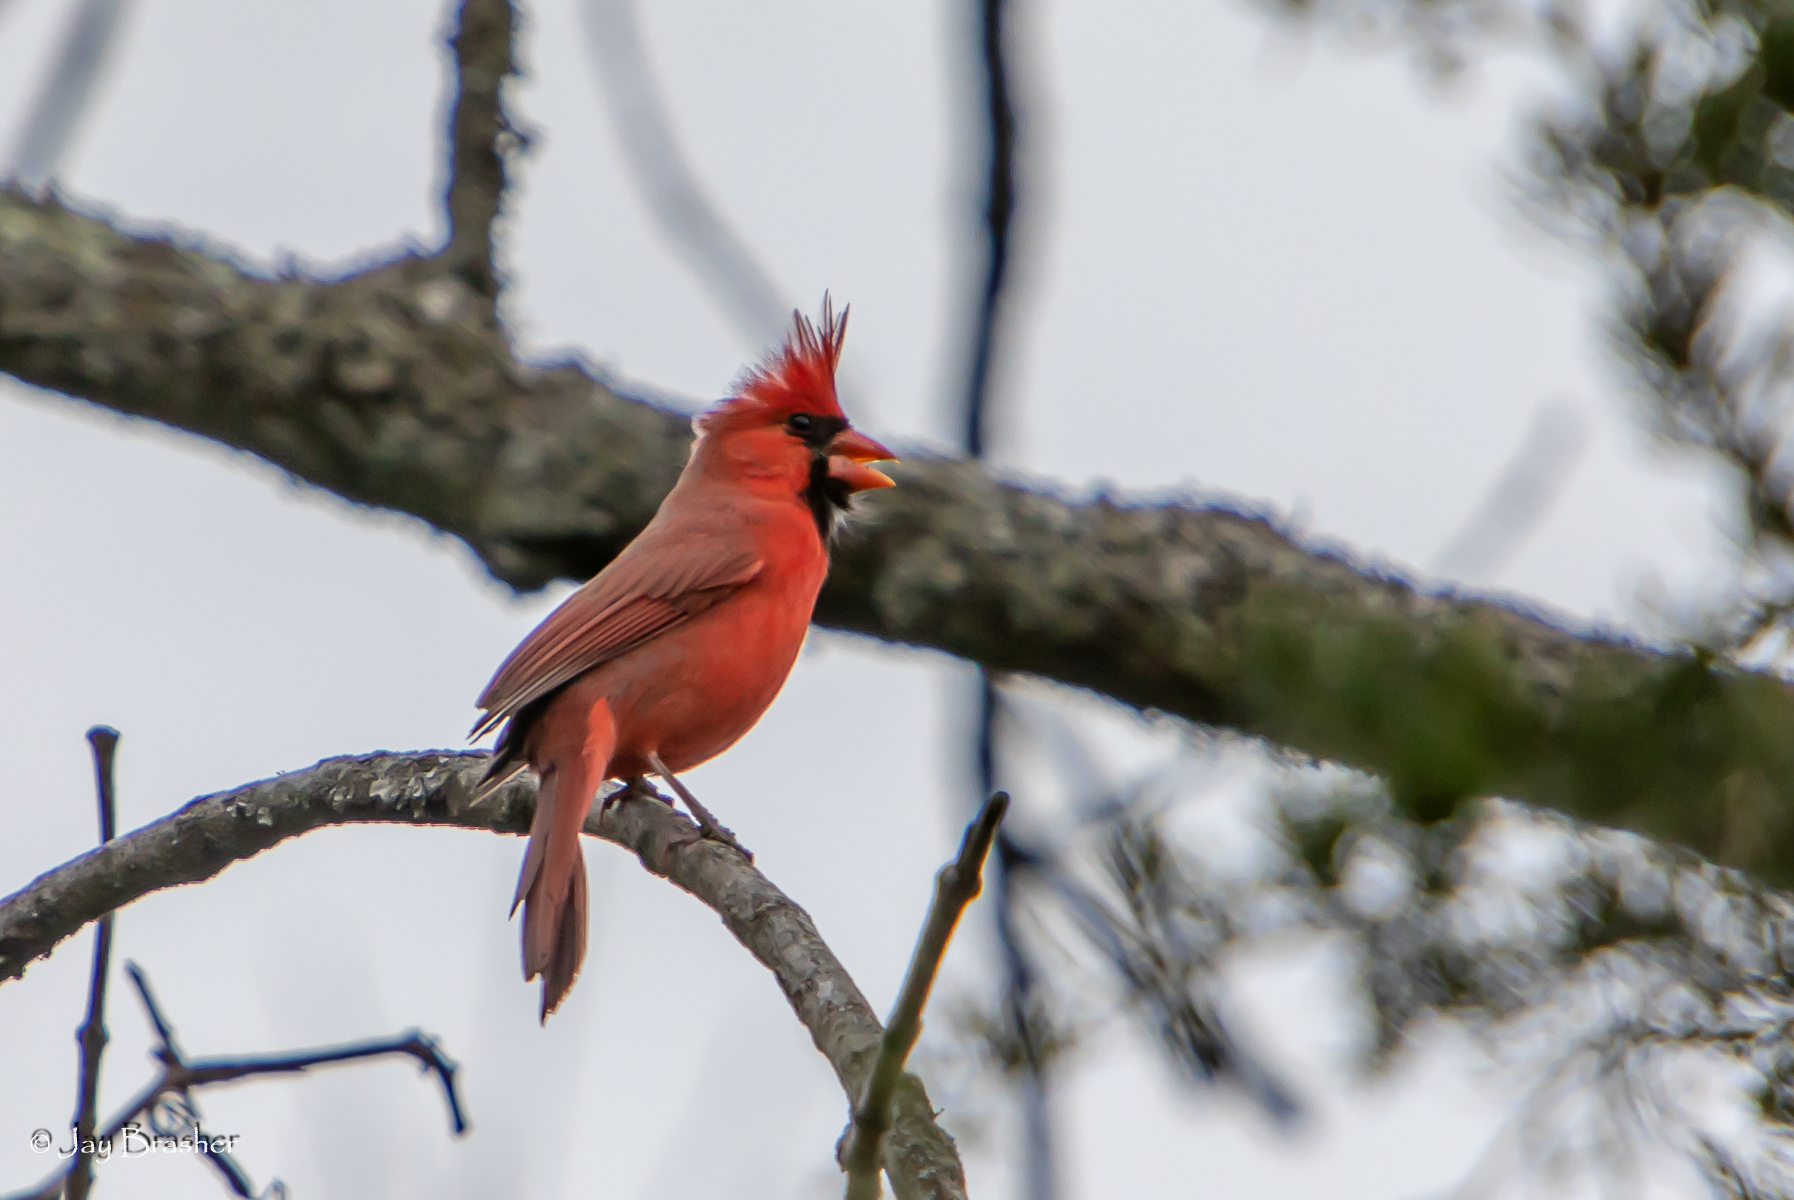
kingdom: Animalia
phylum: Chordata
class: Aves
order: Passeriformes
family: Cardinalidae
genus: Cardinalis
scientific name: Cardinalis cardinalis
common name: Northern cardinal
